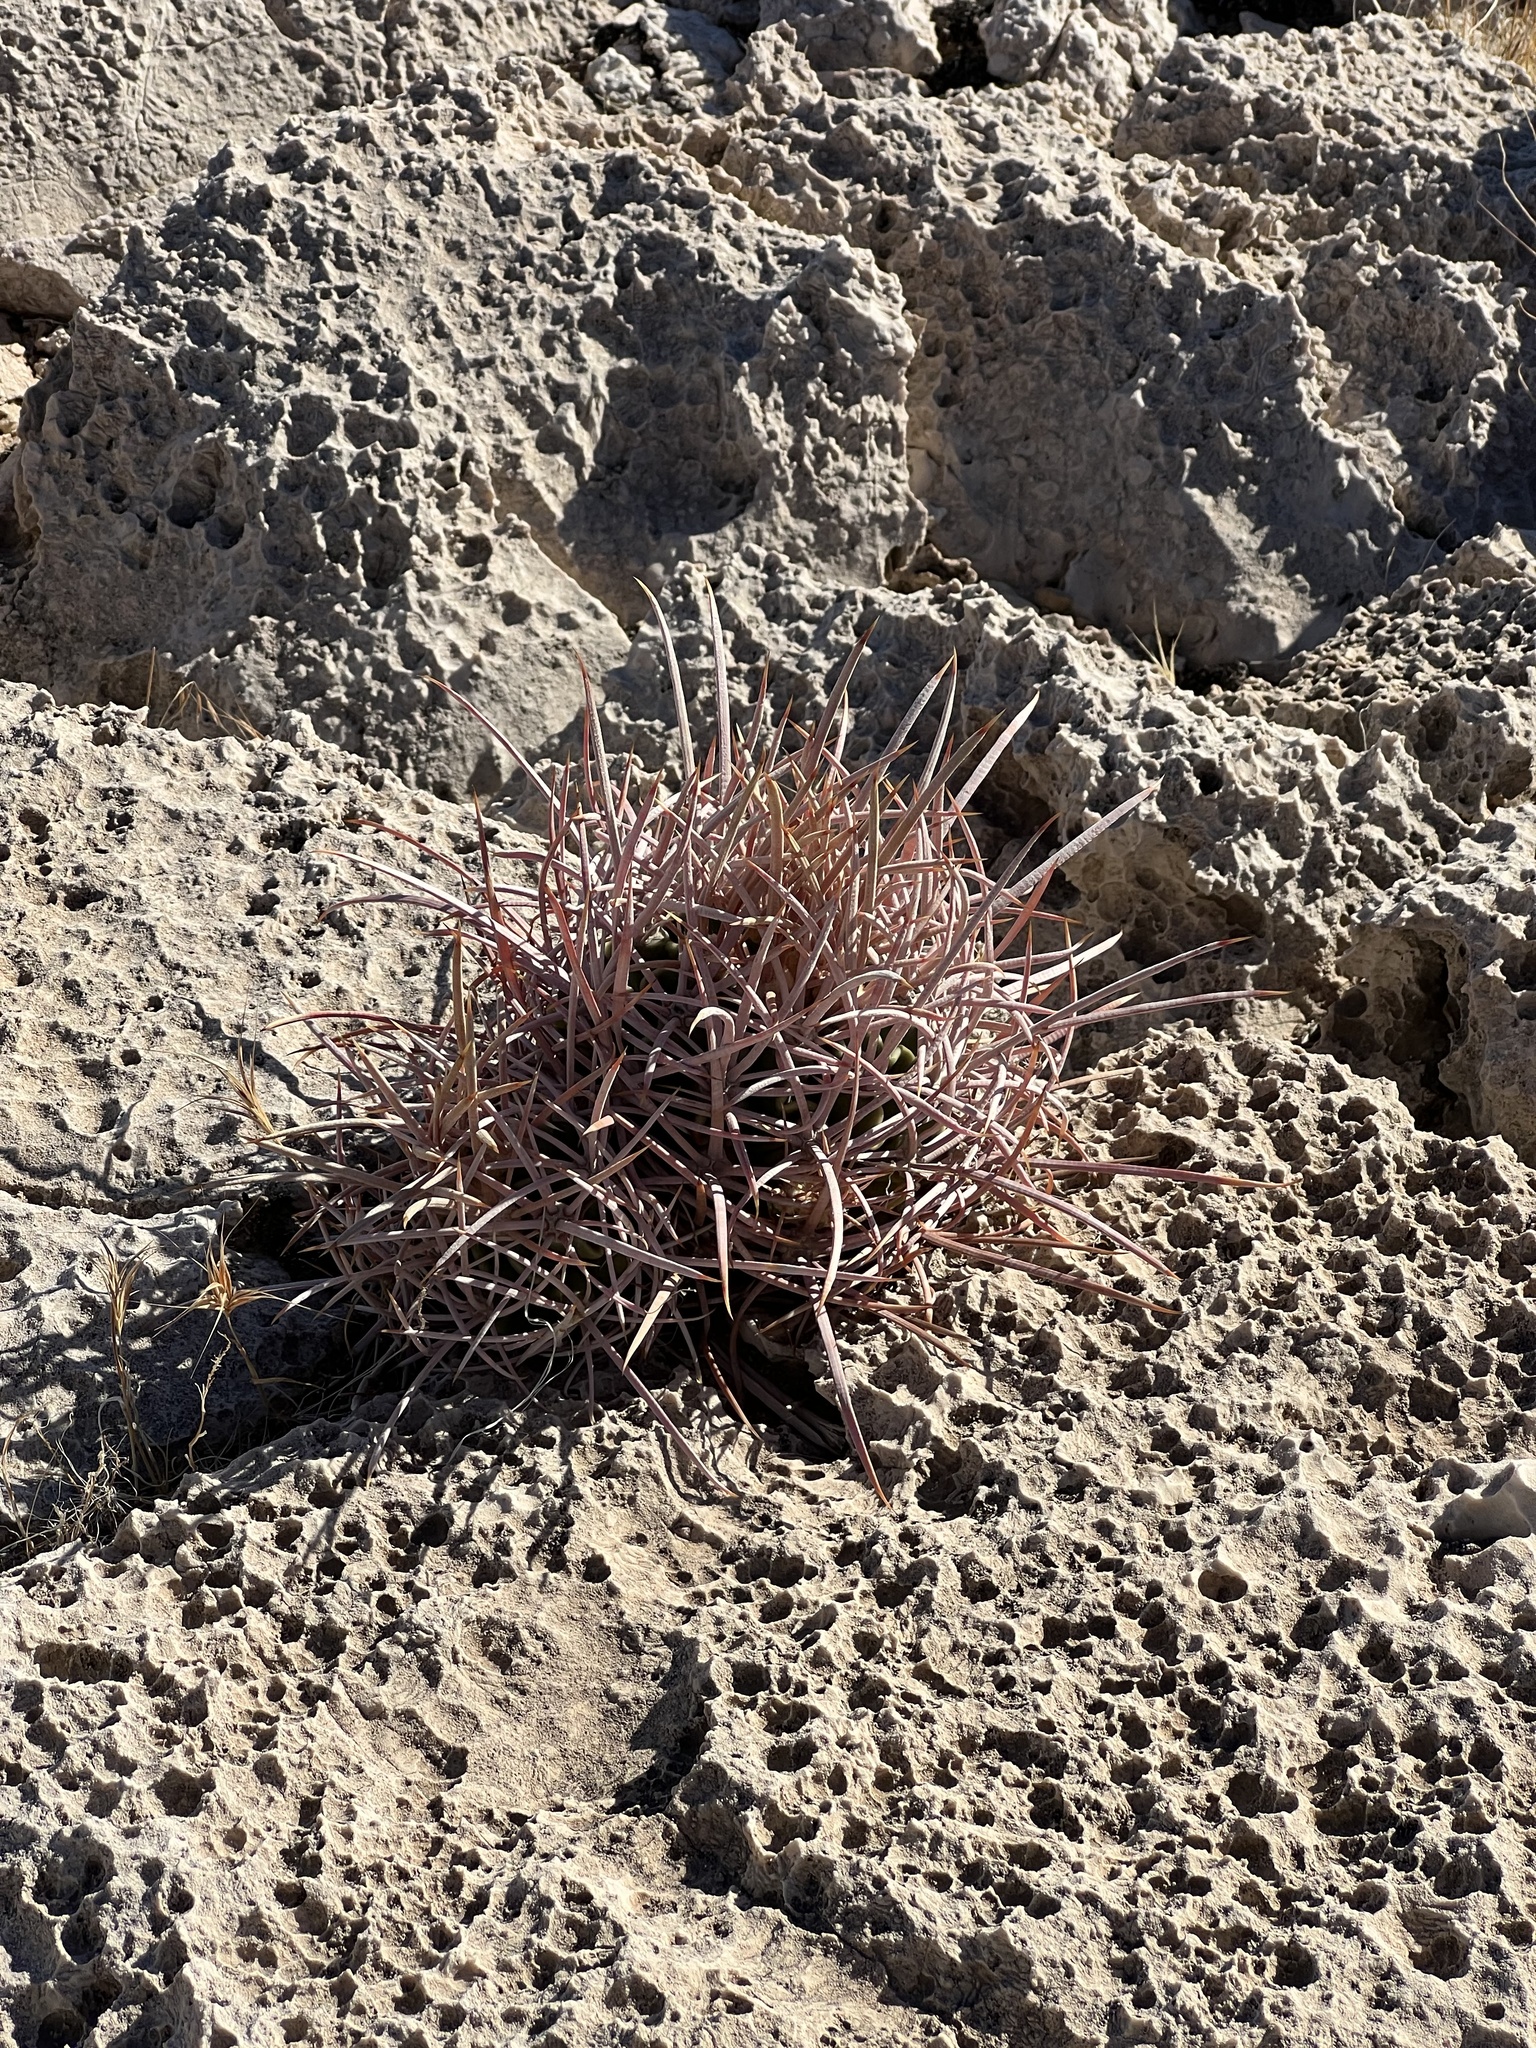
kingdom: Plantae
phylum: Tracheophyta
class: Magnoliopsida
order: Caryophyllales
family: Cactaceae
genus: Echinocactus
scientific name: Echinocactus polycephalus
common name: Cottontop cactus
